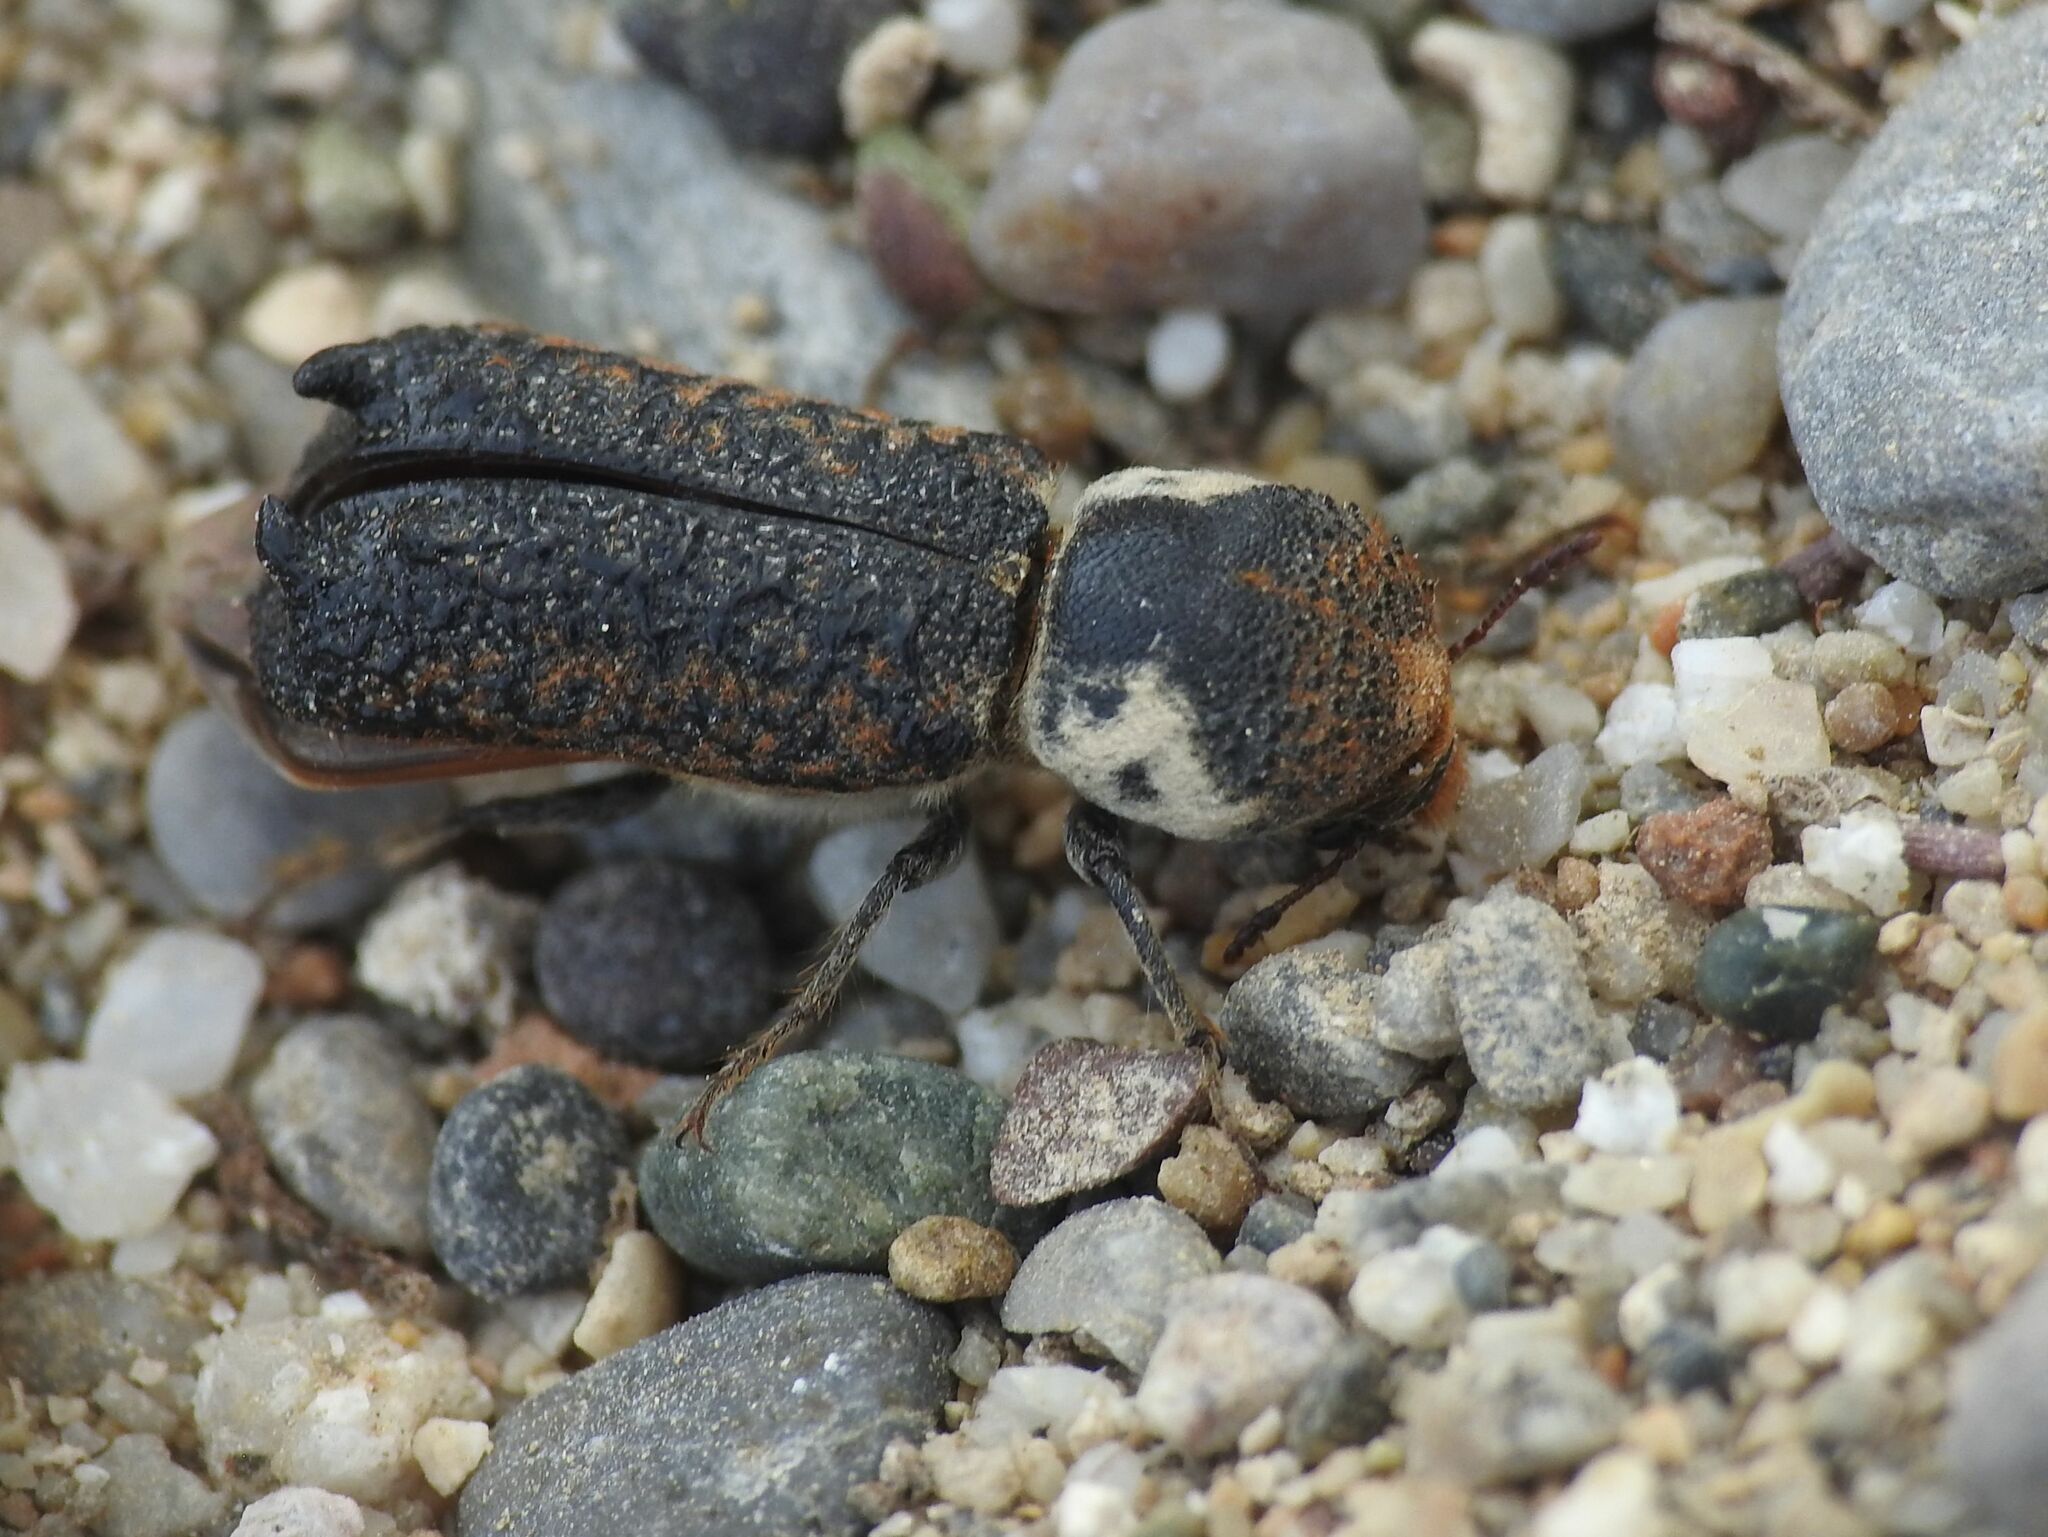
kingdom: Animalia
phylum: Arthropoda
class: Insecta
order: Coleoptera
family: Bostrichidae
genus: Amphicerus
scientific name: Amphicerus bimaculatus
